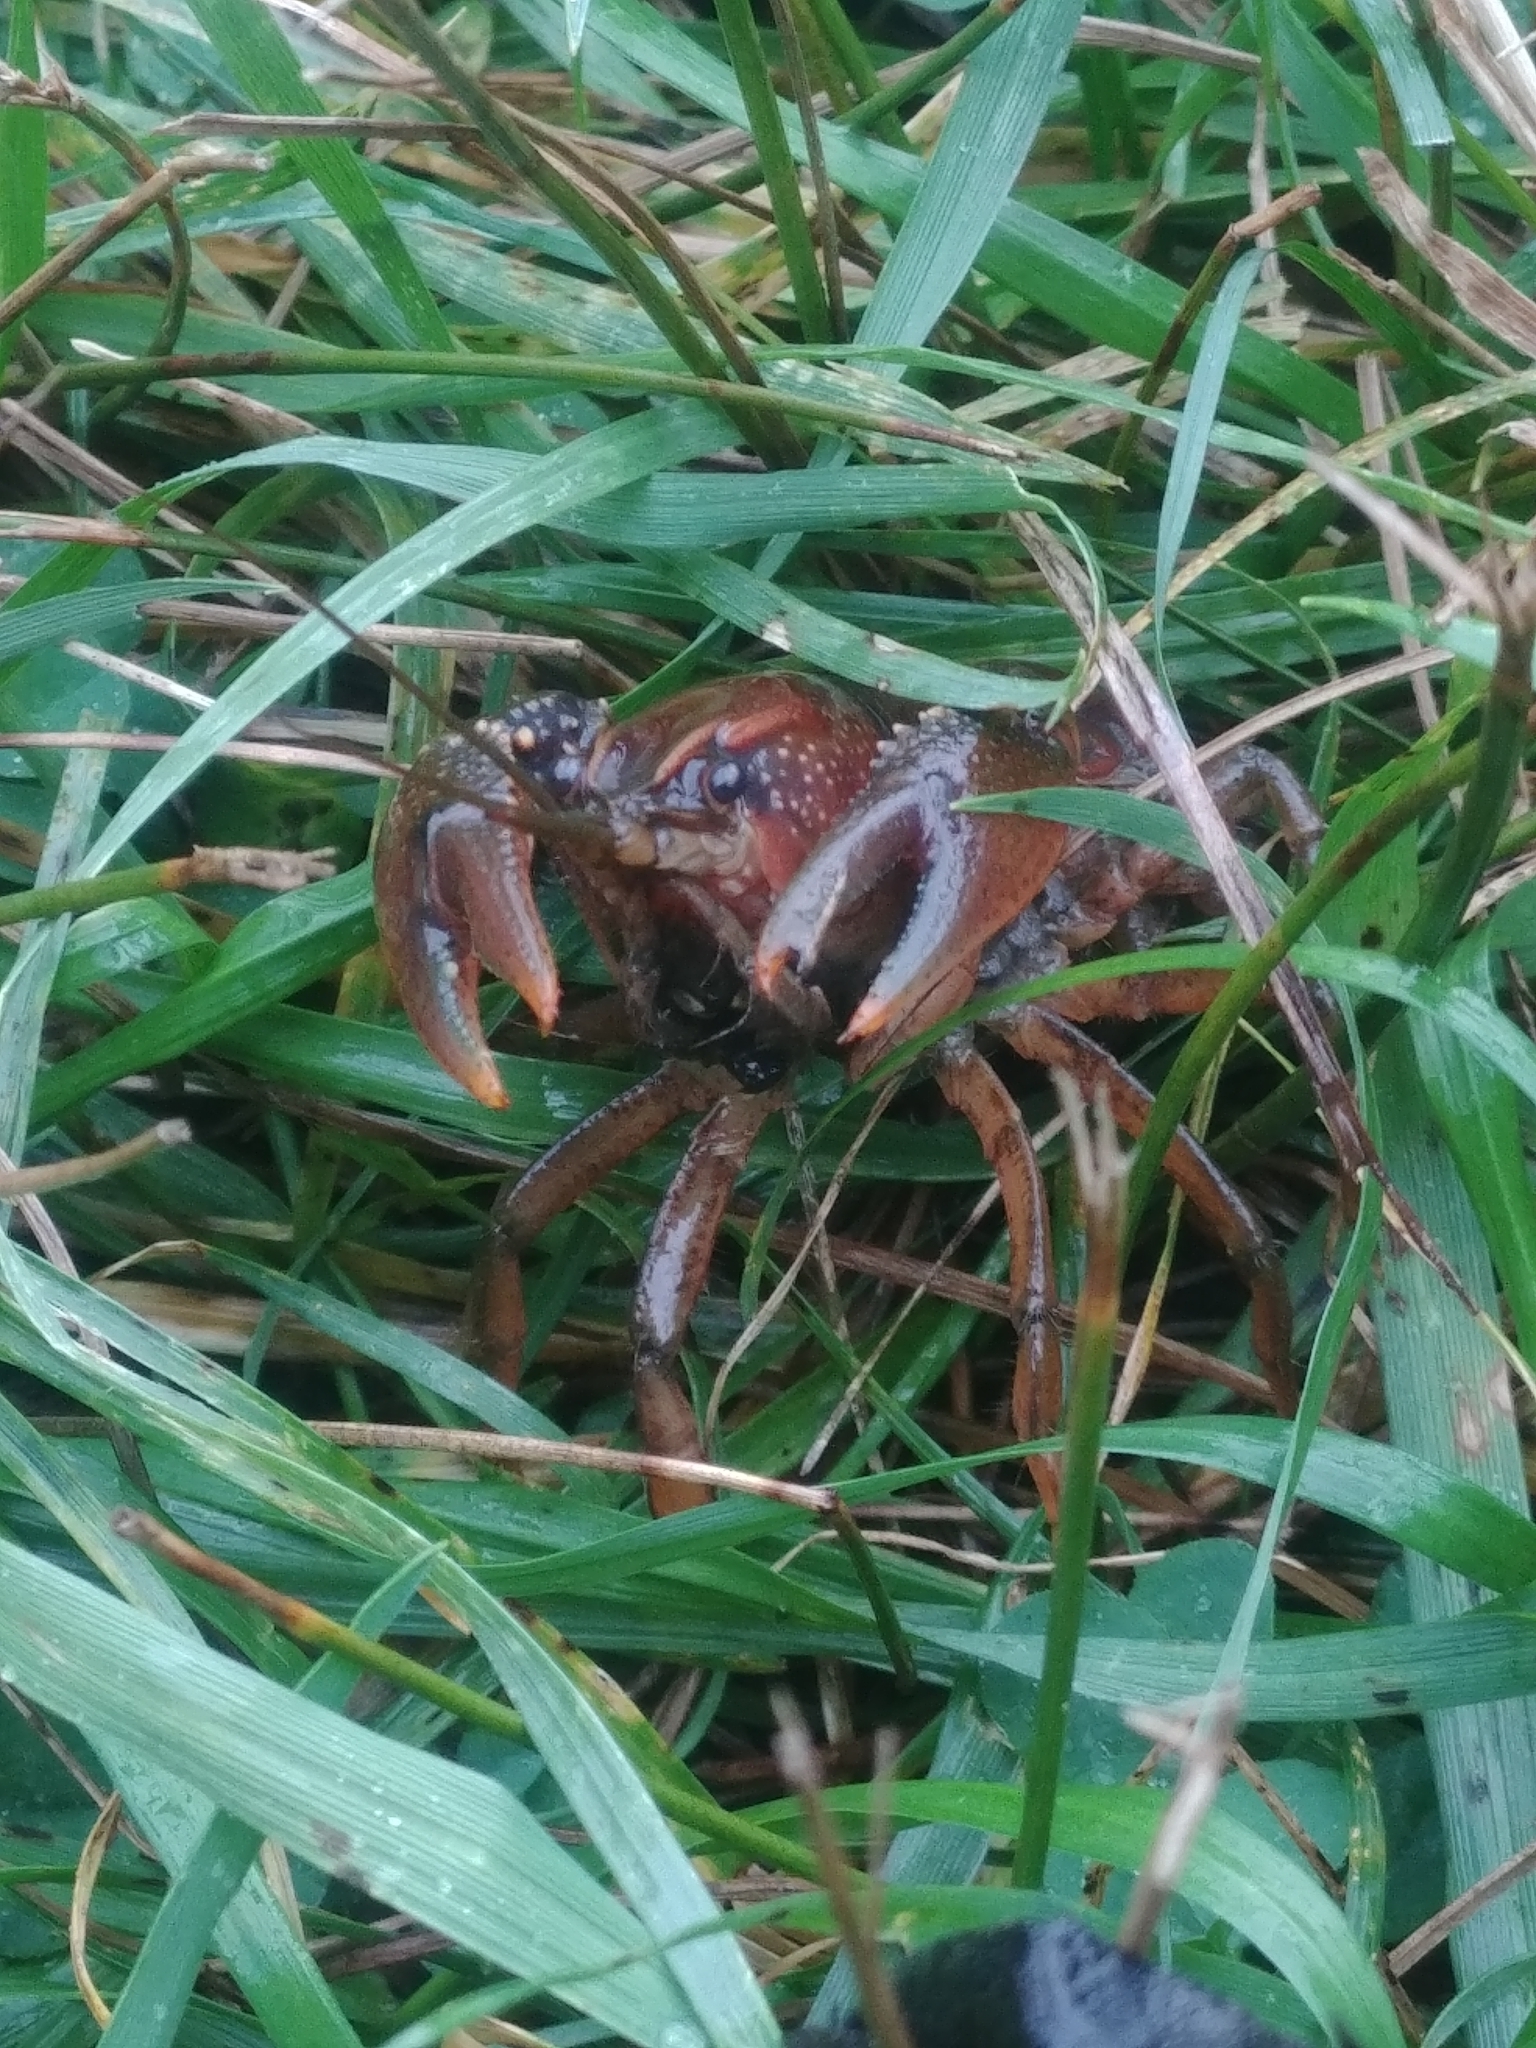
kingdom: Animalia
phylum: Arthropoda
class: Malacostraca
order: Decapoda
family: Cambaridae
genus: Procambarus
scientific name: Procambarus gracilis
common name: Prairie crayfish
